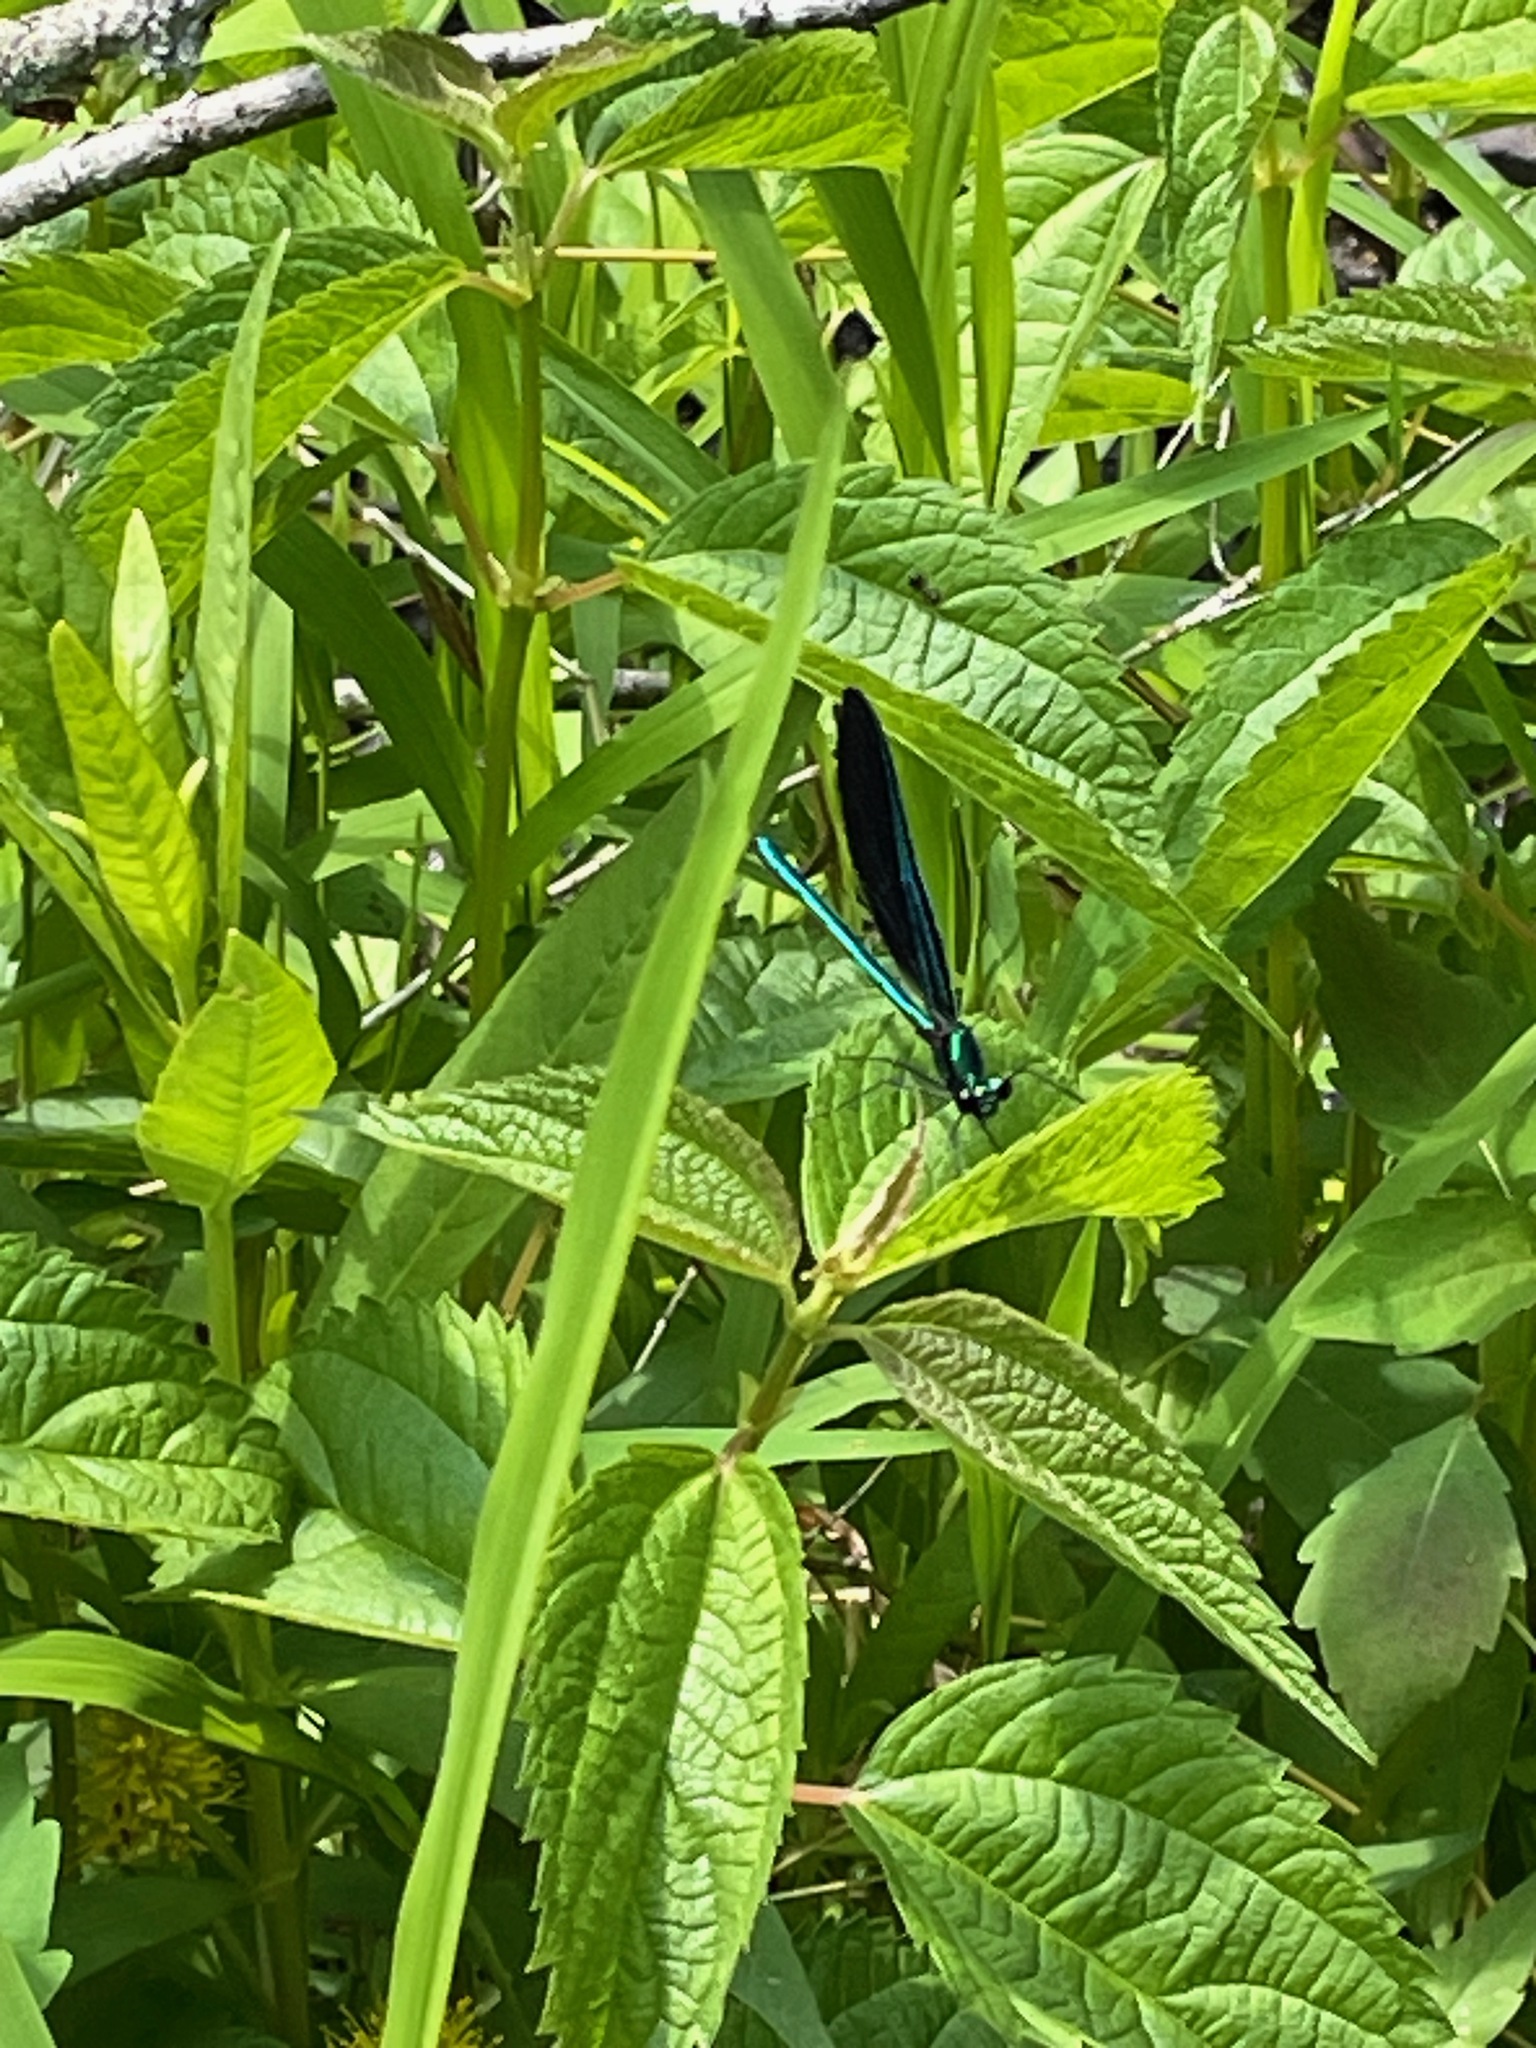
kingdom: Animalia
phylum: Arthropoda
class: Insecta
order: Odonata
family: Calopterygidae
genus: Calopteryx
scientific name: Calopteryx maculata
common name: Ebony jewelwing
